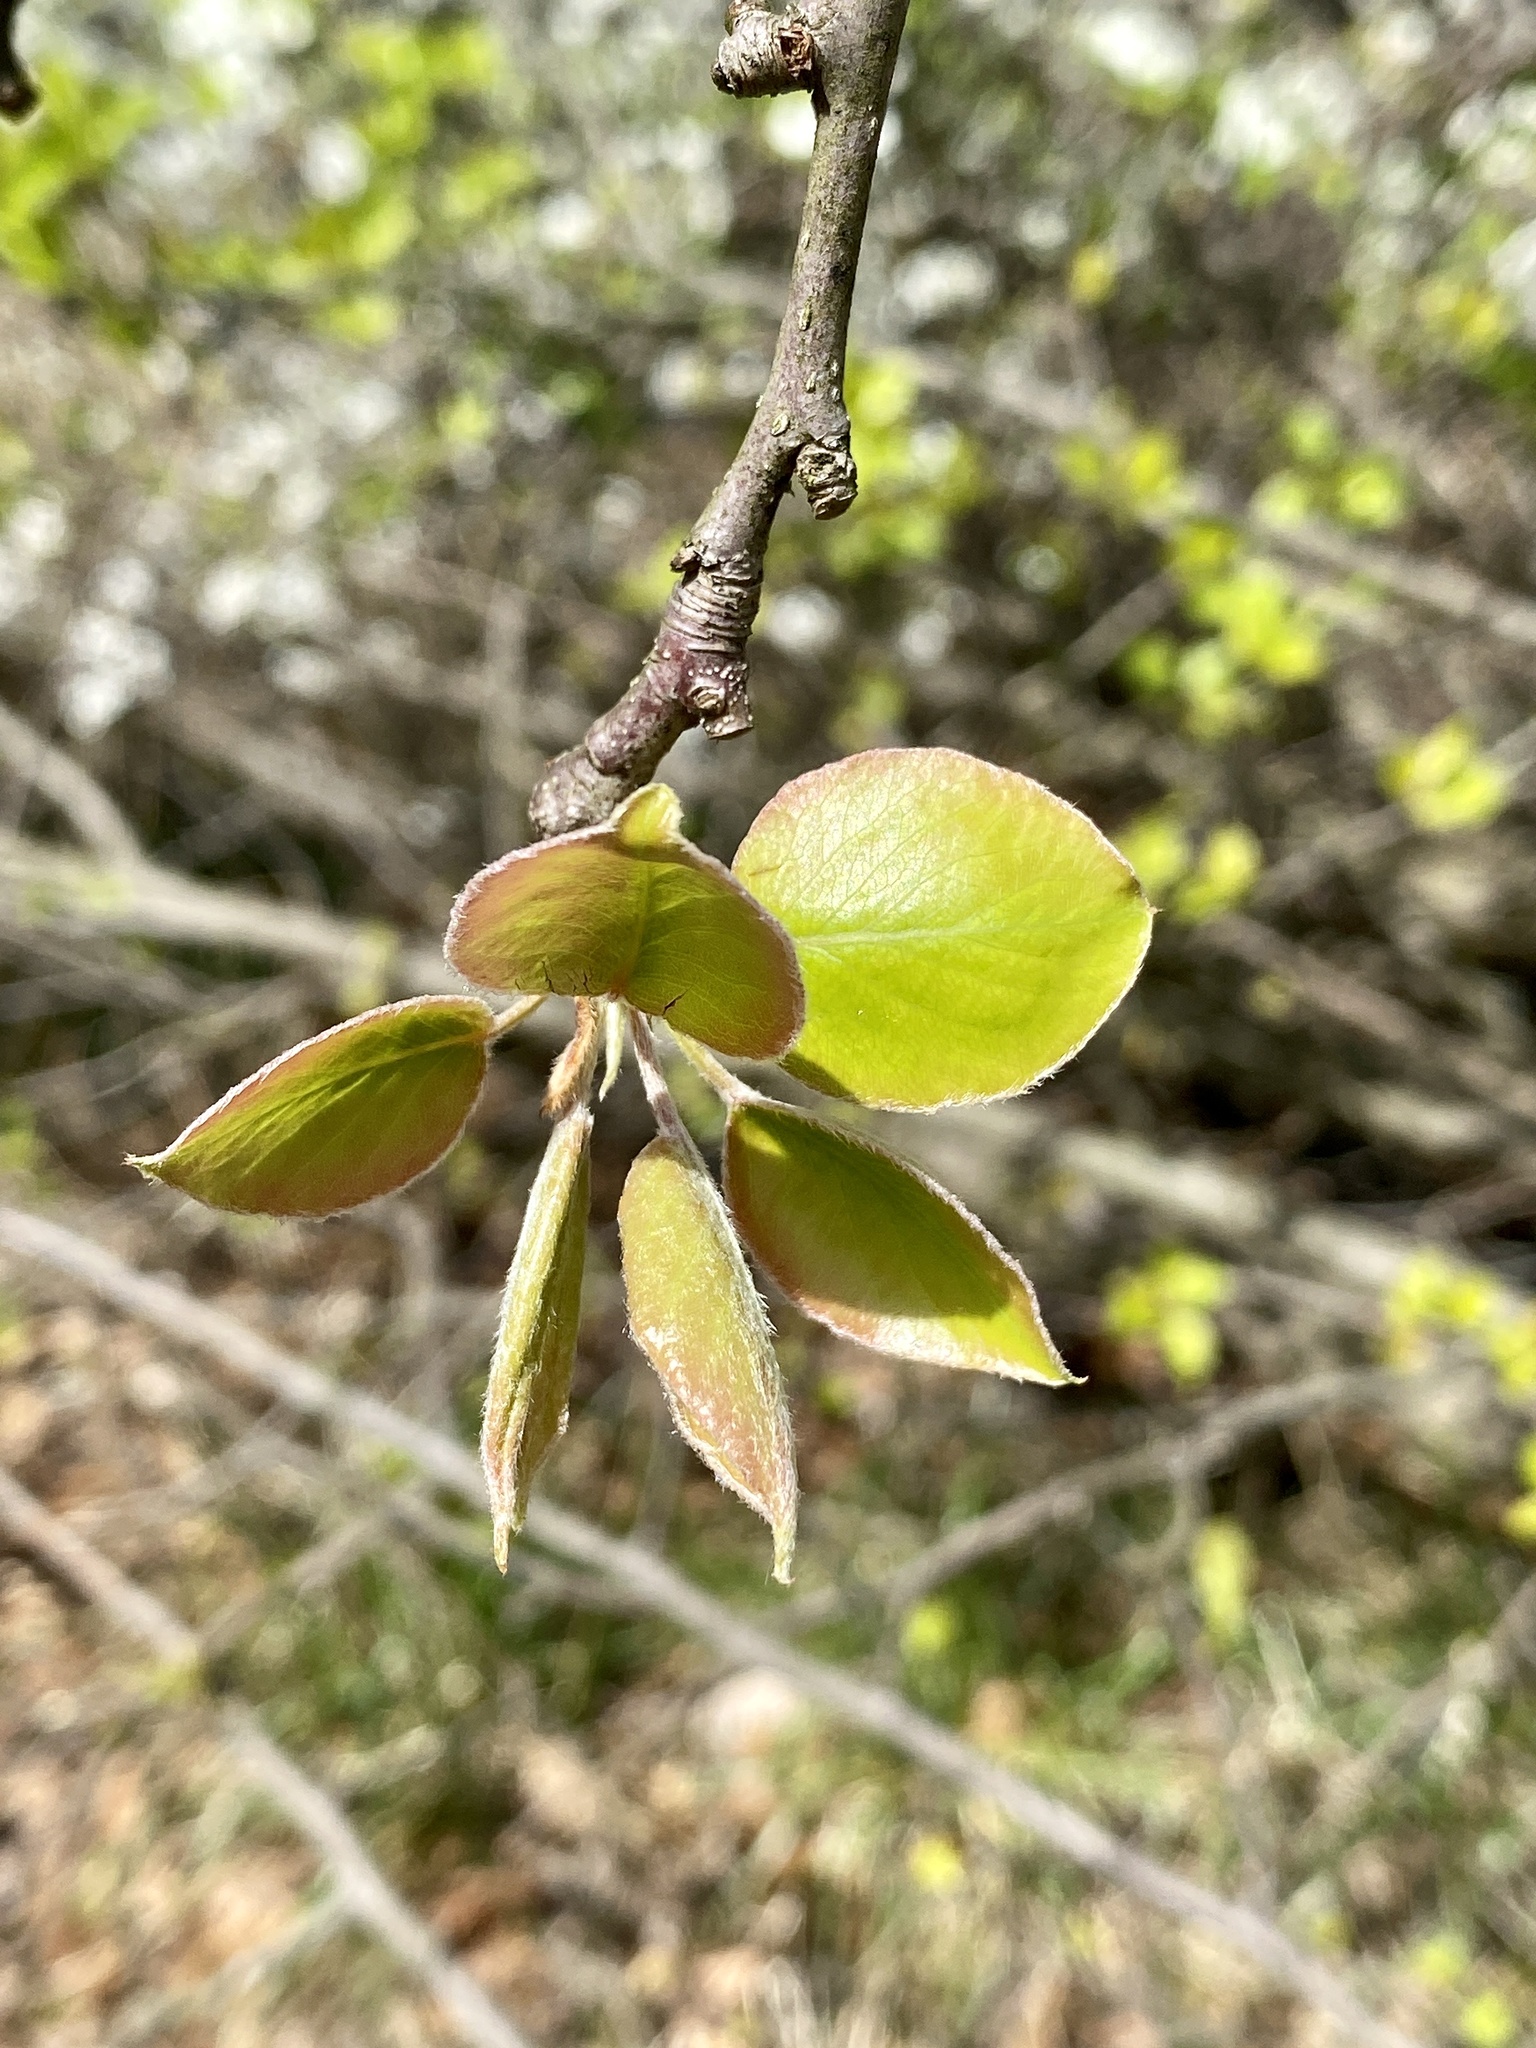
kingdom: Plantae
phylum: Tracheophyta
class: Magnoliopsida
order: Rosales
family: Rosaceae
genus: Pyrus
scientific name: Pyrus calleryana
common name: Callery pear
